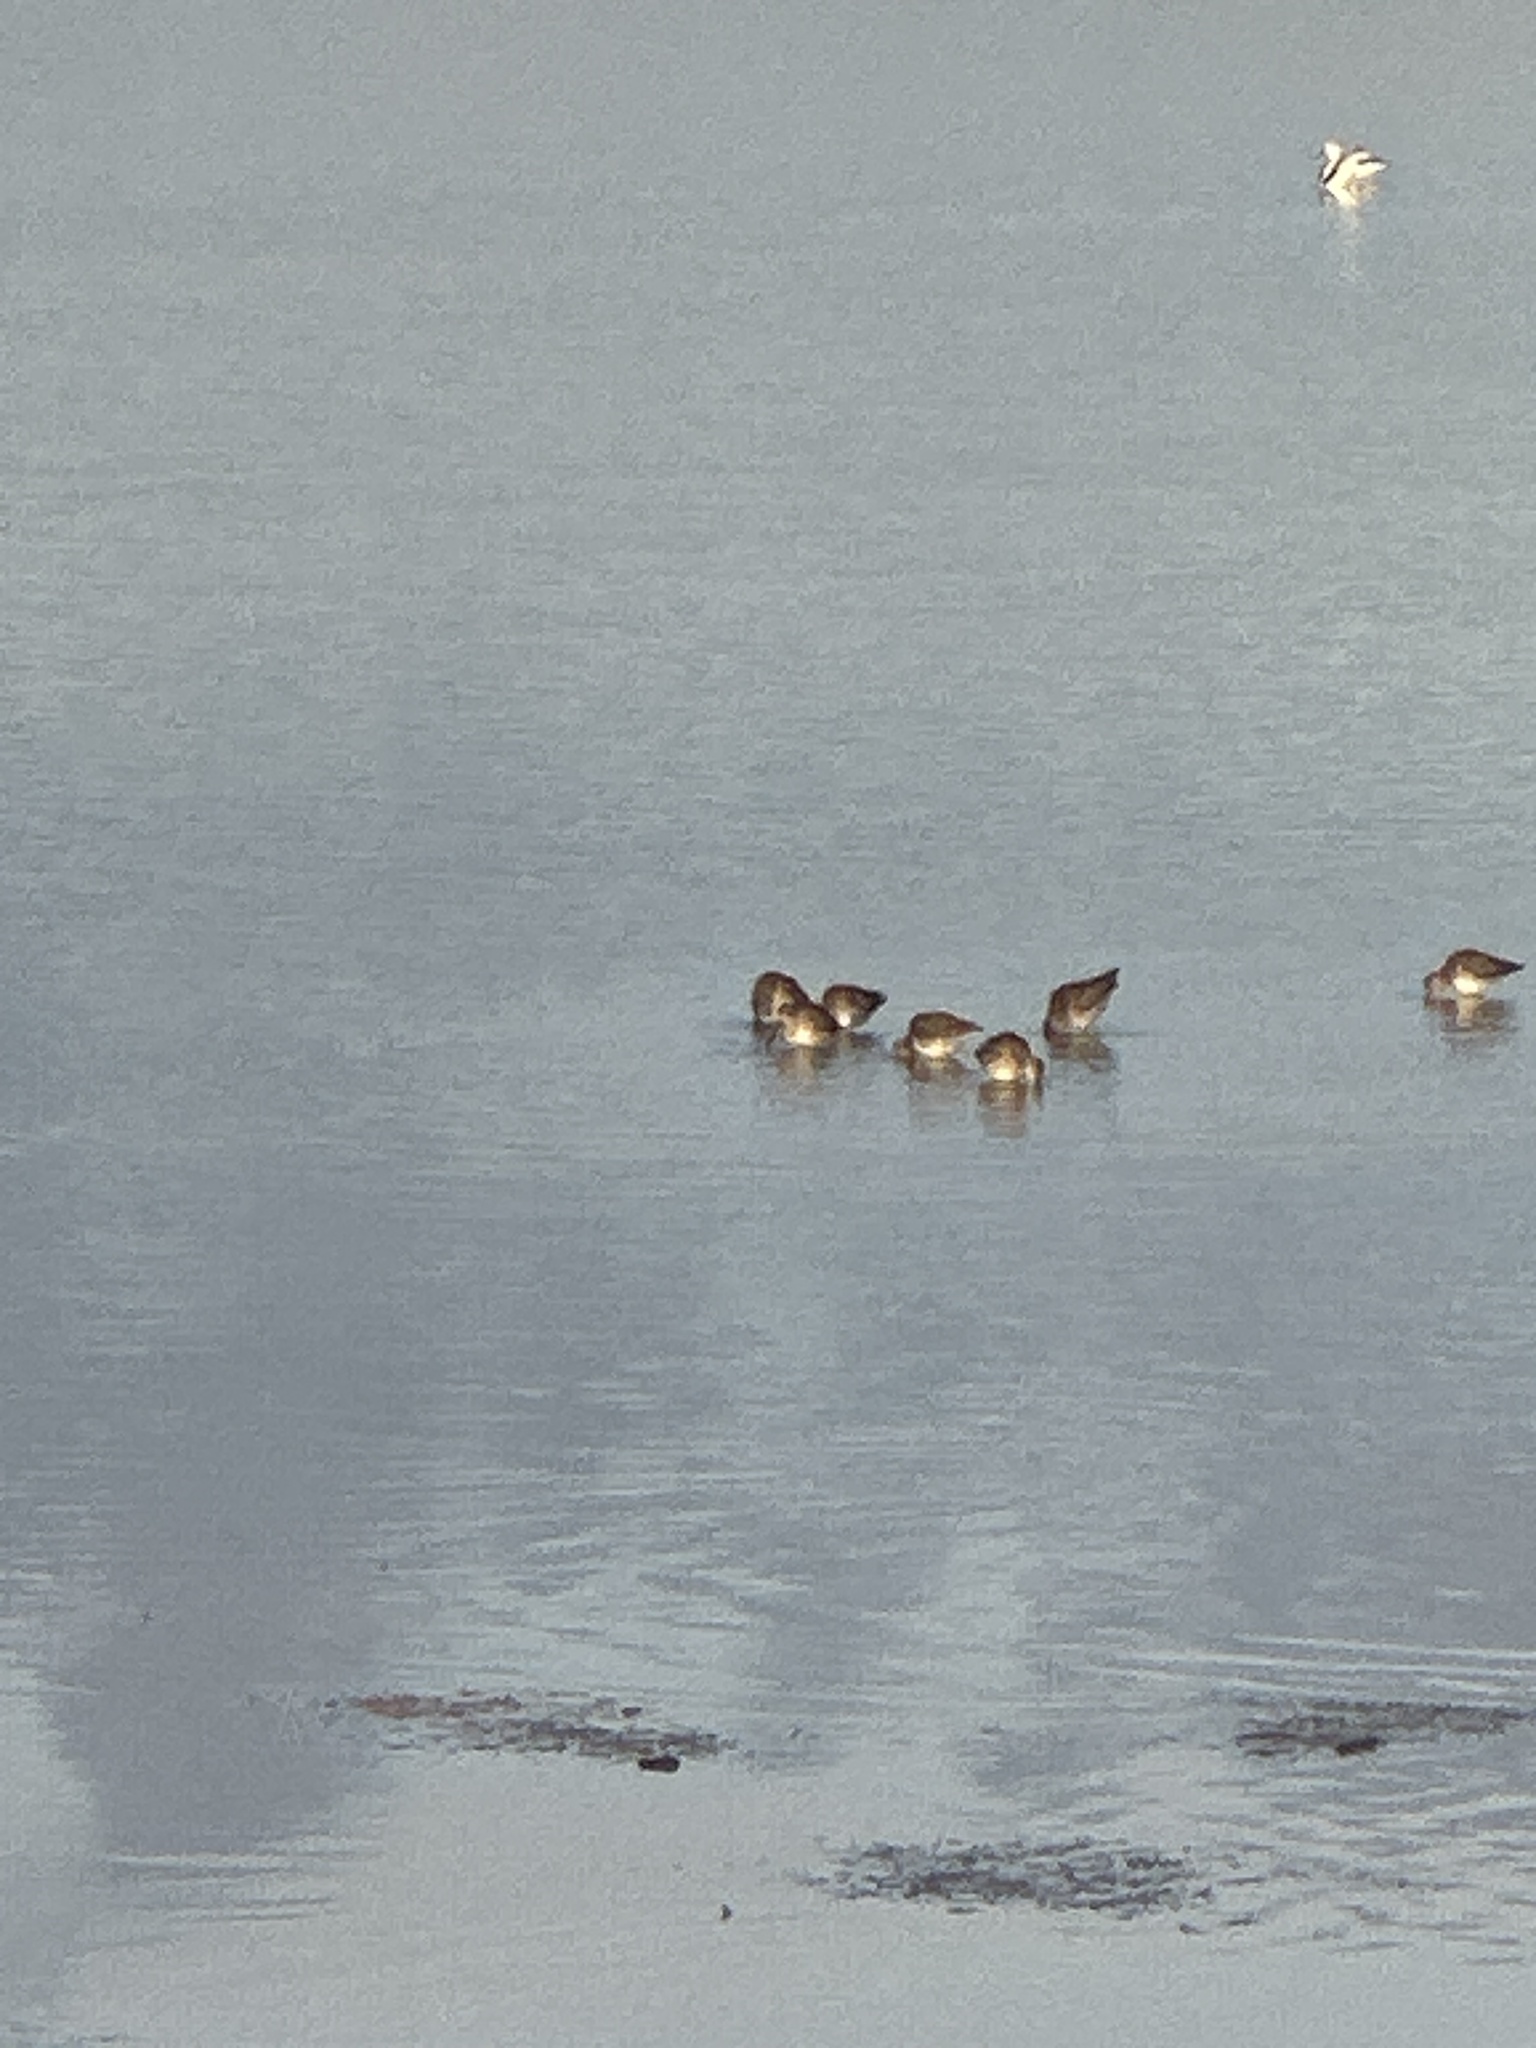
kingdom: Animalia
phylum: Chordata
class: Aves
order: Charadriiformes
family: Scolopacidae
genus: Limnodromus
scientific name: Limnodromus scolopaceus
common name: Long-billed dowitcher
